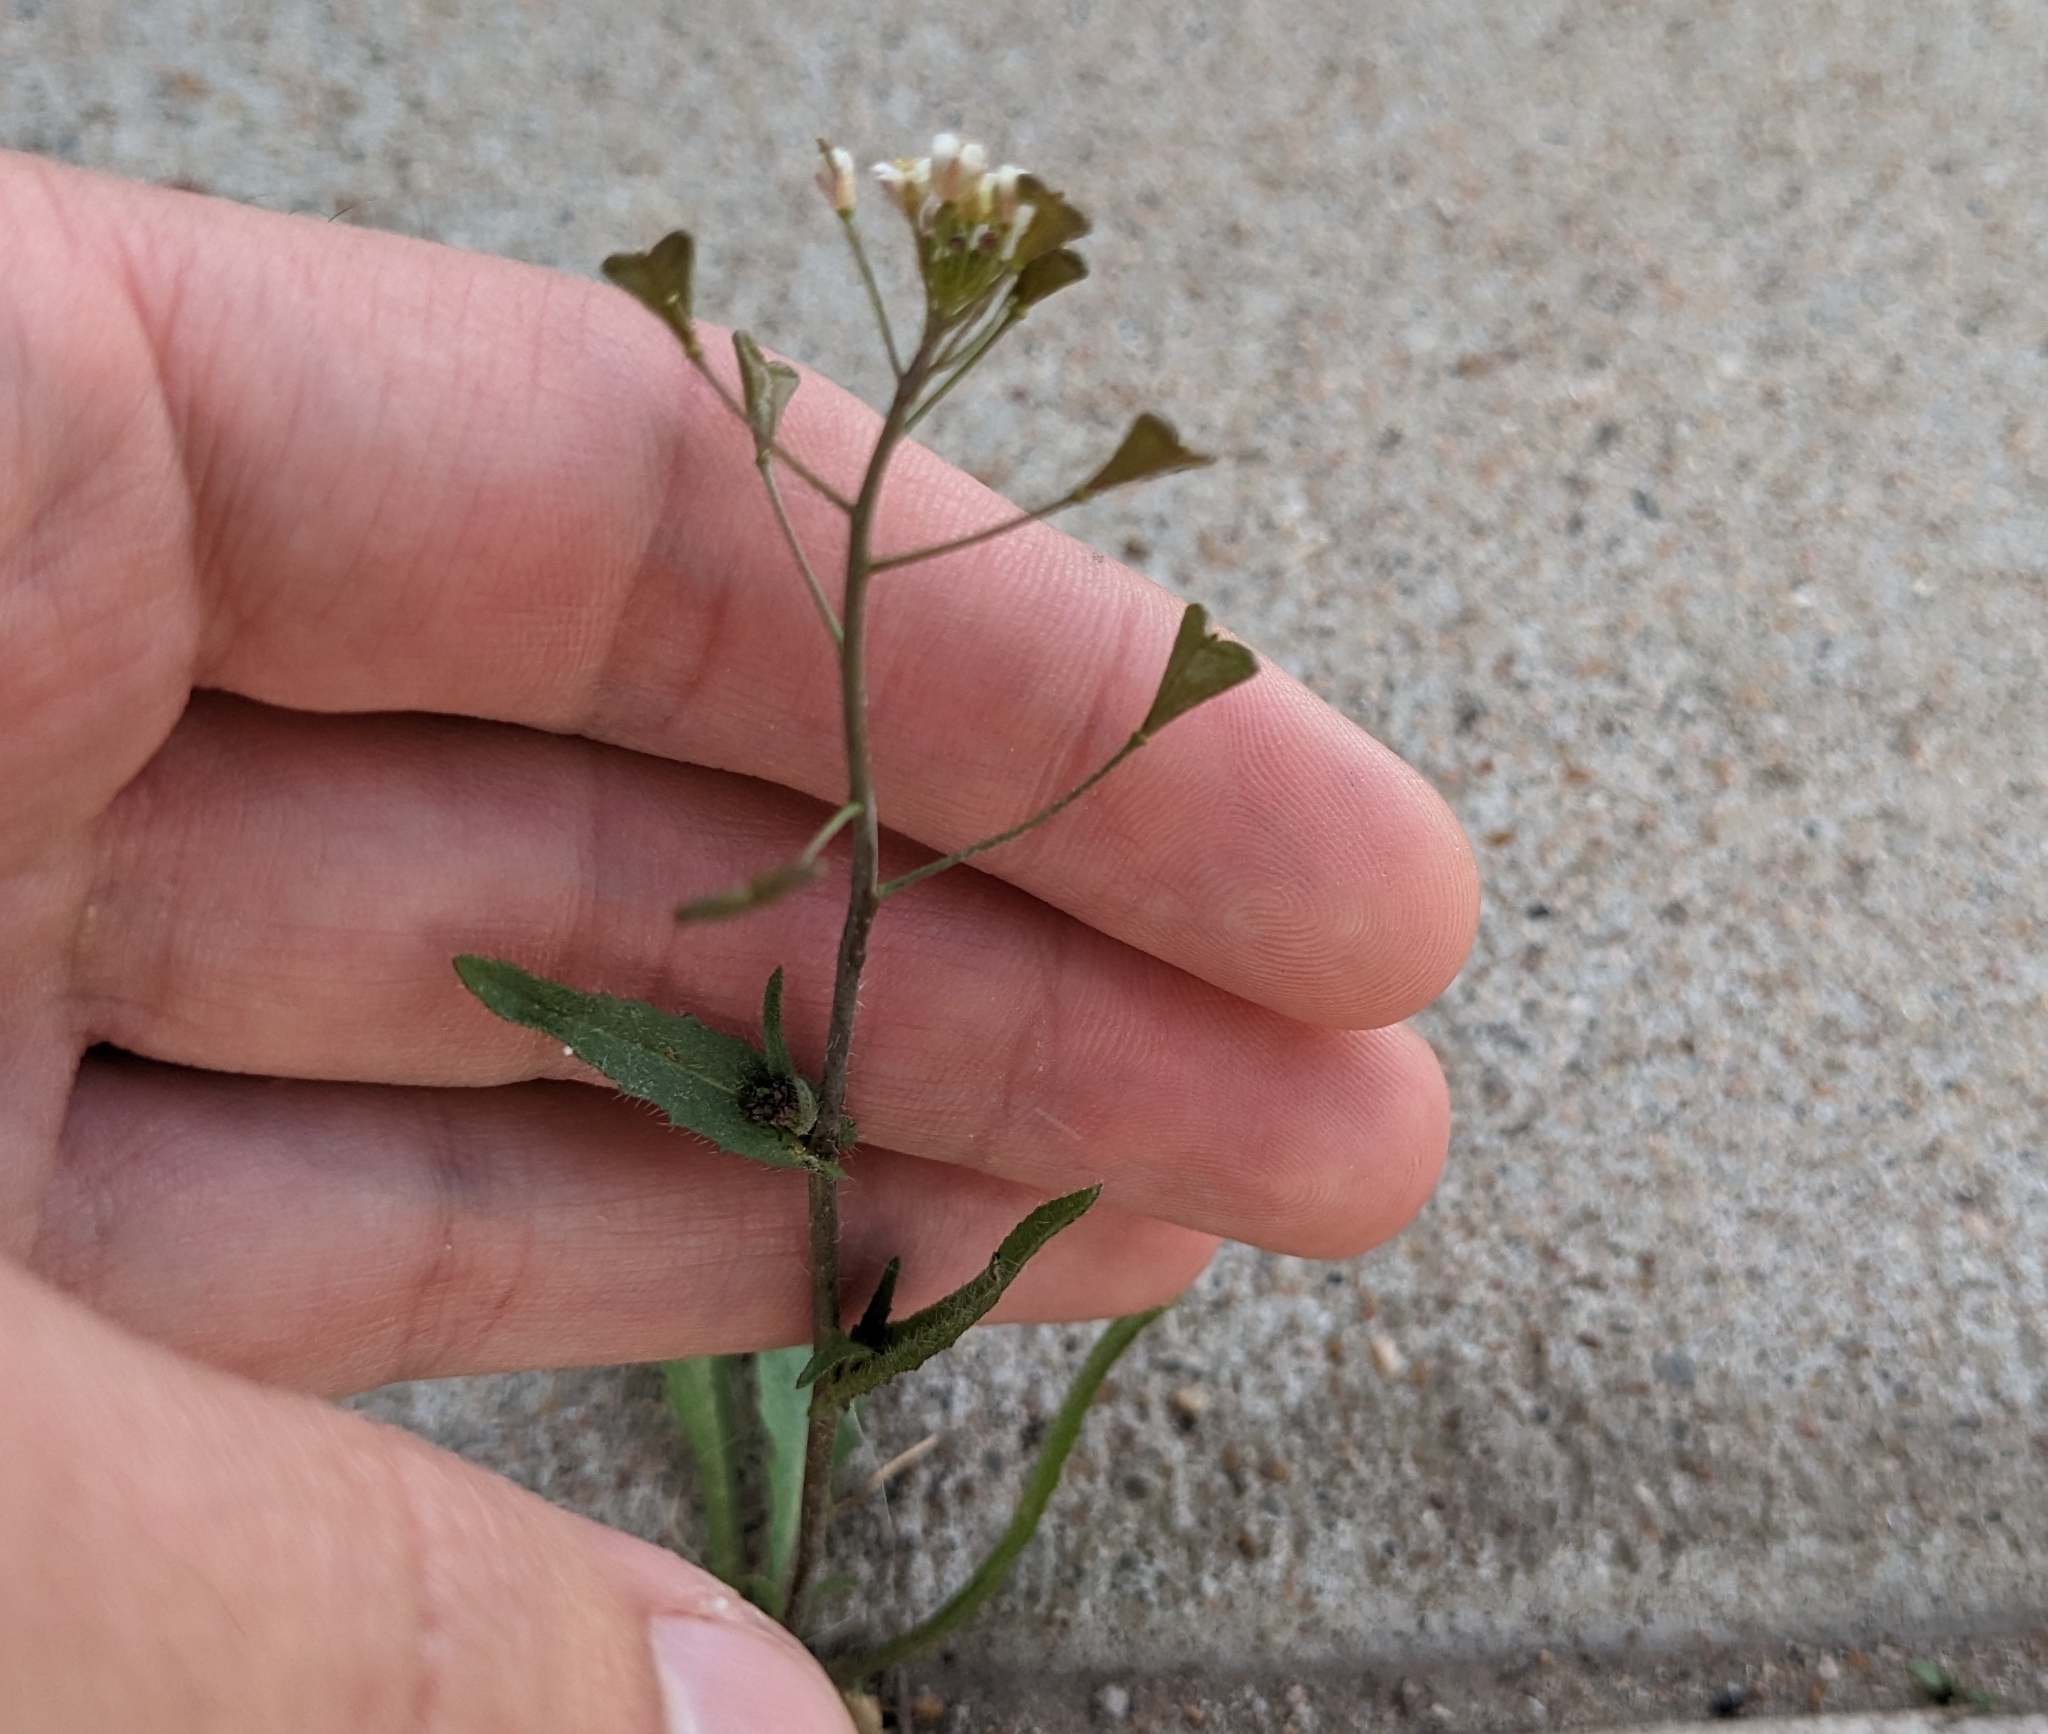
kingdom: Plantae
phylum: Tracheophyta
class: Magnoliopsida
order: Brassicales
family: Brassicaceae
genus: Capsella
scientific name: Capsella bursa-pastoris
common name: Shepherd's purse
